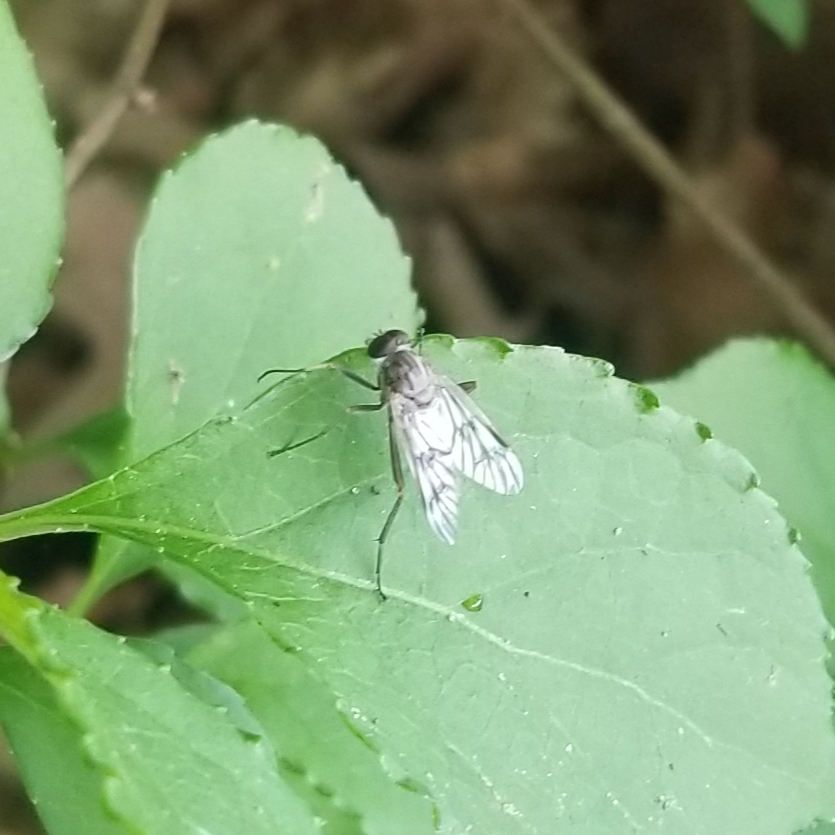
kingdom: Animalia
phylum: Arthropoda
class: Insecta
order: Diptera
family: Rhagionidae
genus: Rhagio
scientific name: Rhagio mystaceus
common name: Common snipe fly
